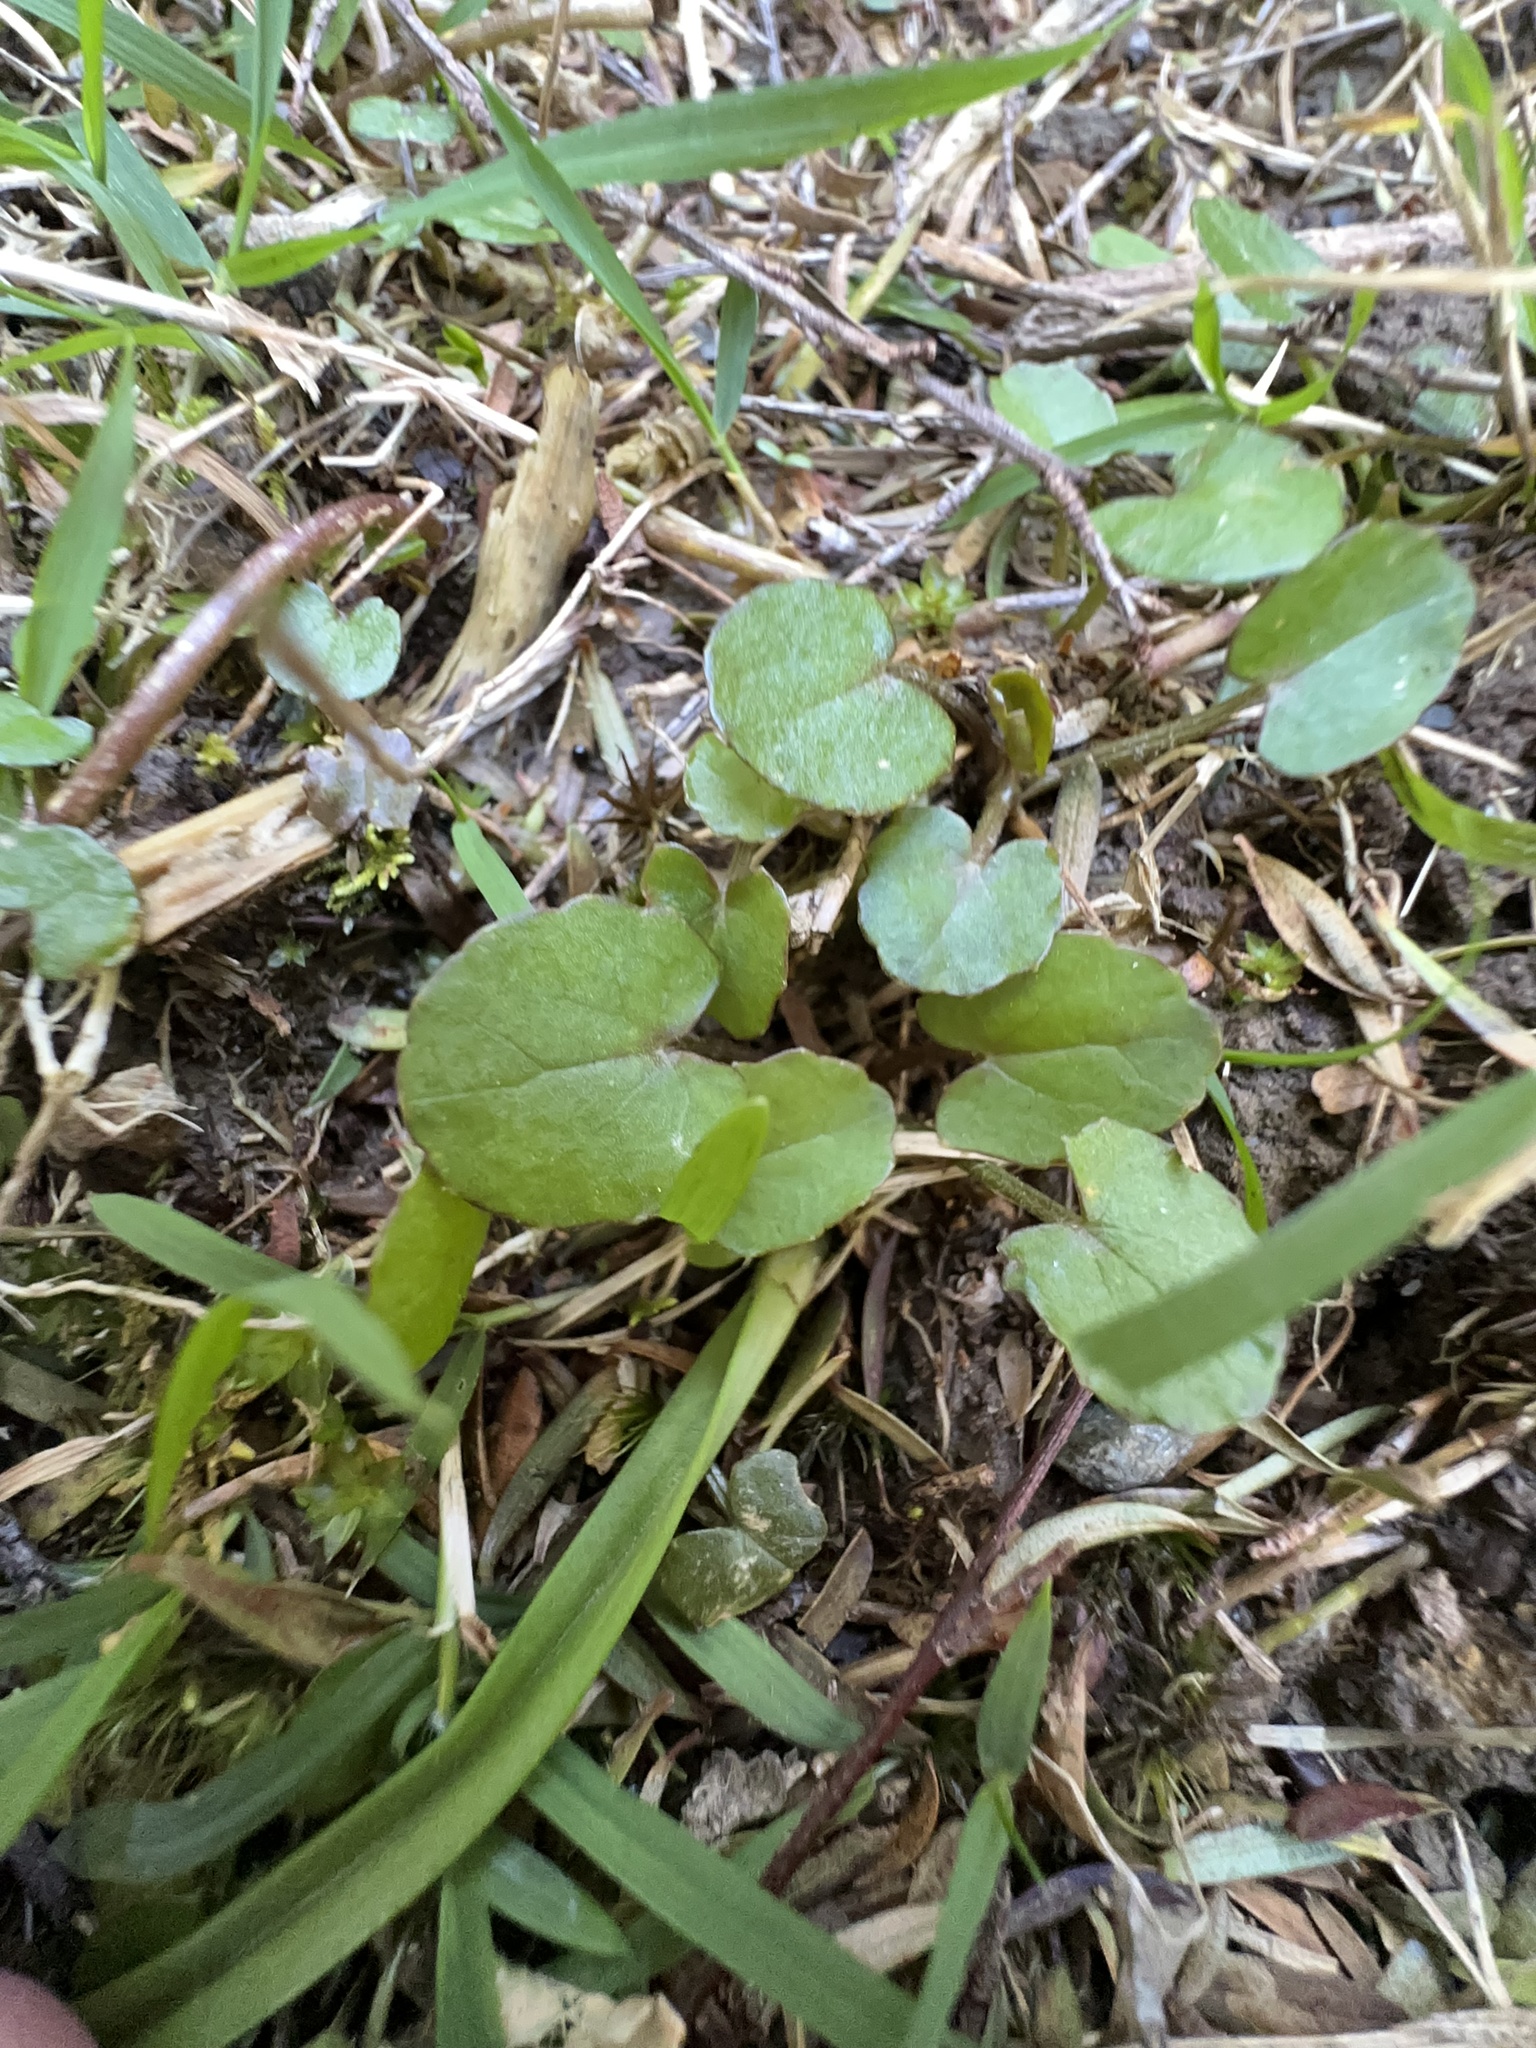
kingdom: Plantae
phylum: Tracheophyta
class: Magnoliopsida
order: Apiales
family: Apiaceae
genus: Centella
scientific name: Centella uniflora
